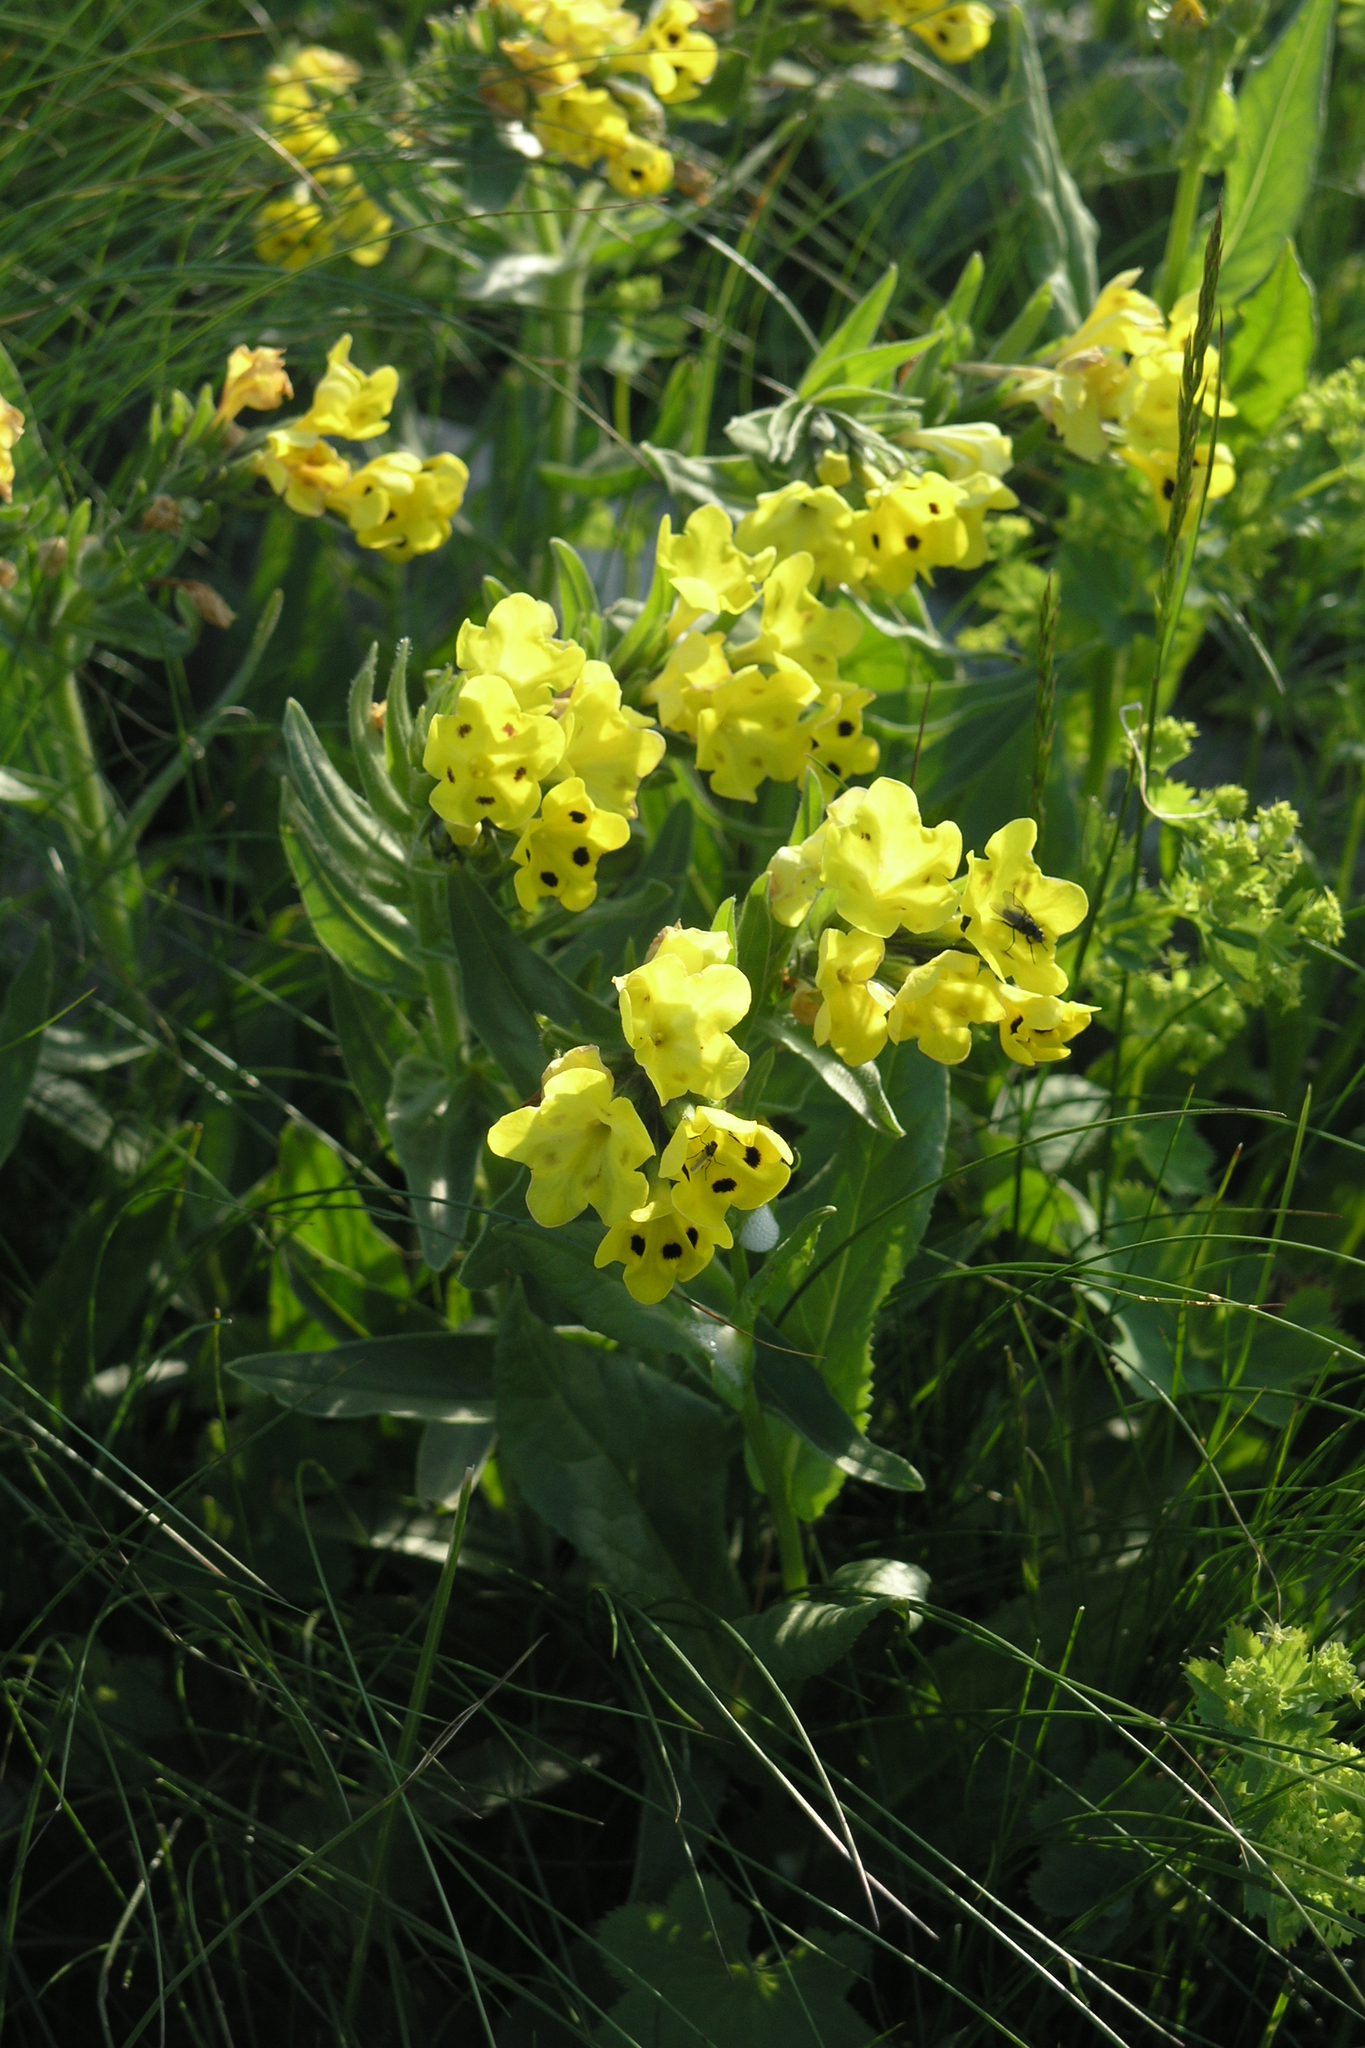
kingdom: Plantae
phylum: Tracheophyta
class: Magnoliopsida
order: Boraginales
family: Boraginaceae
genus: Huynhia
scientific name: Huynhia pulchra
